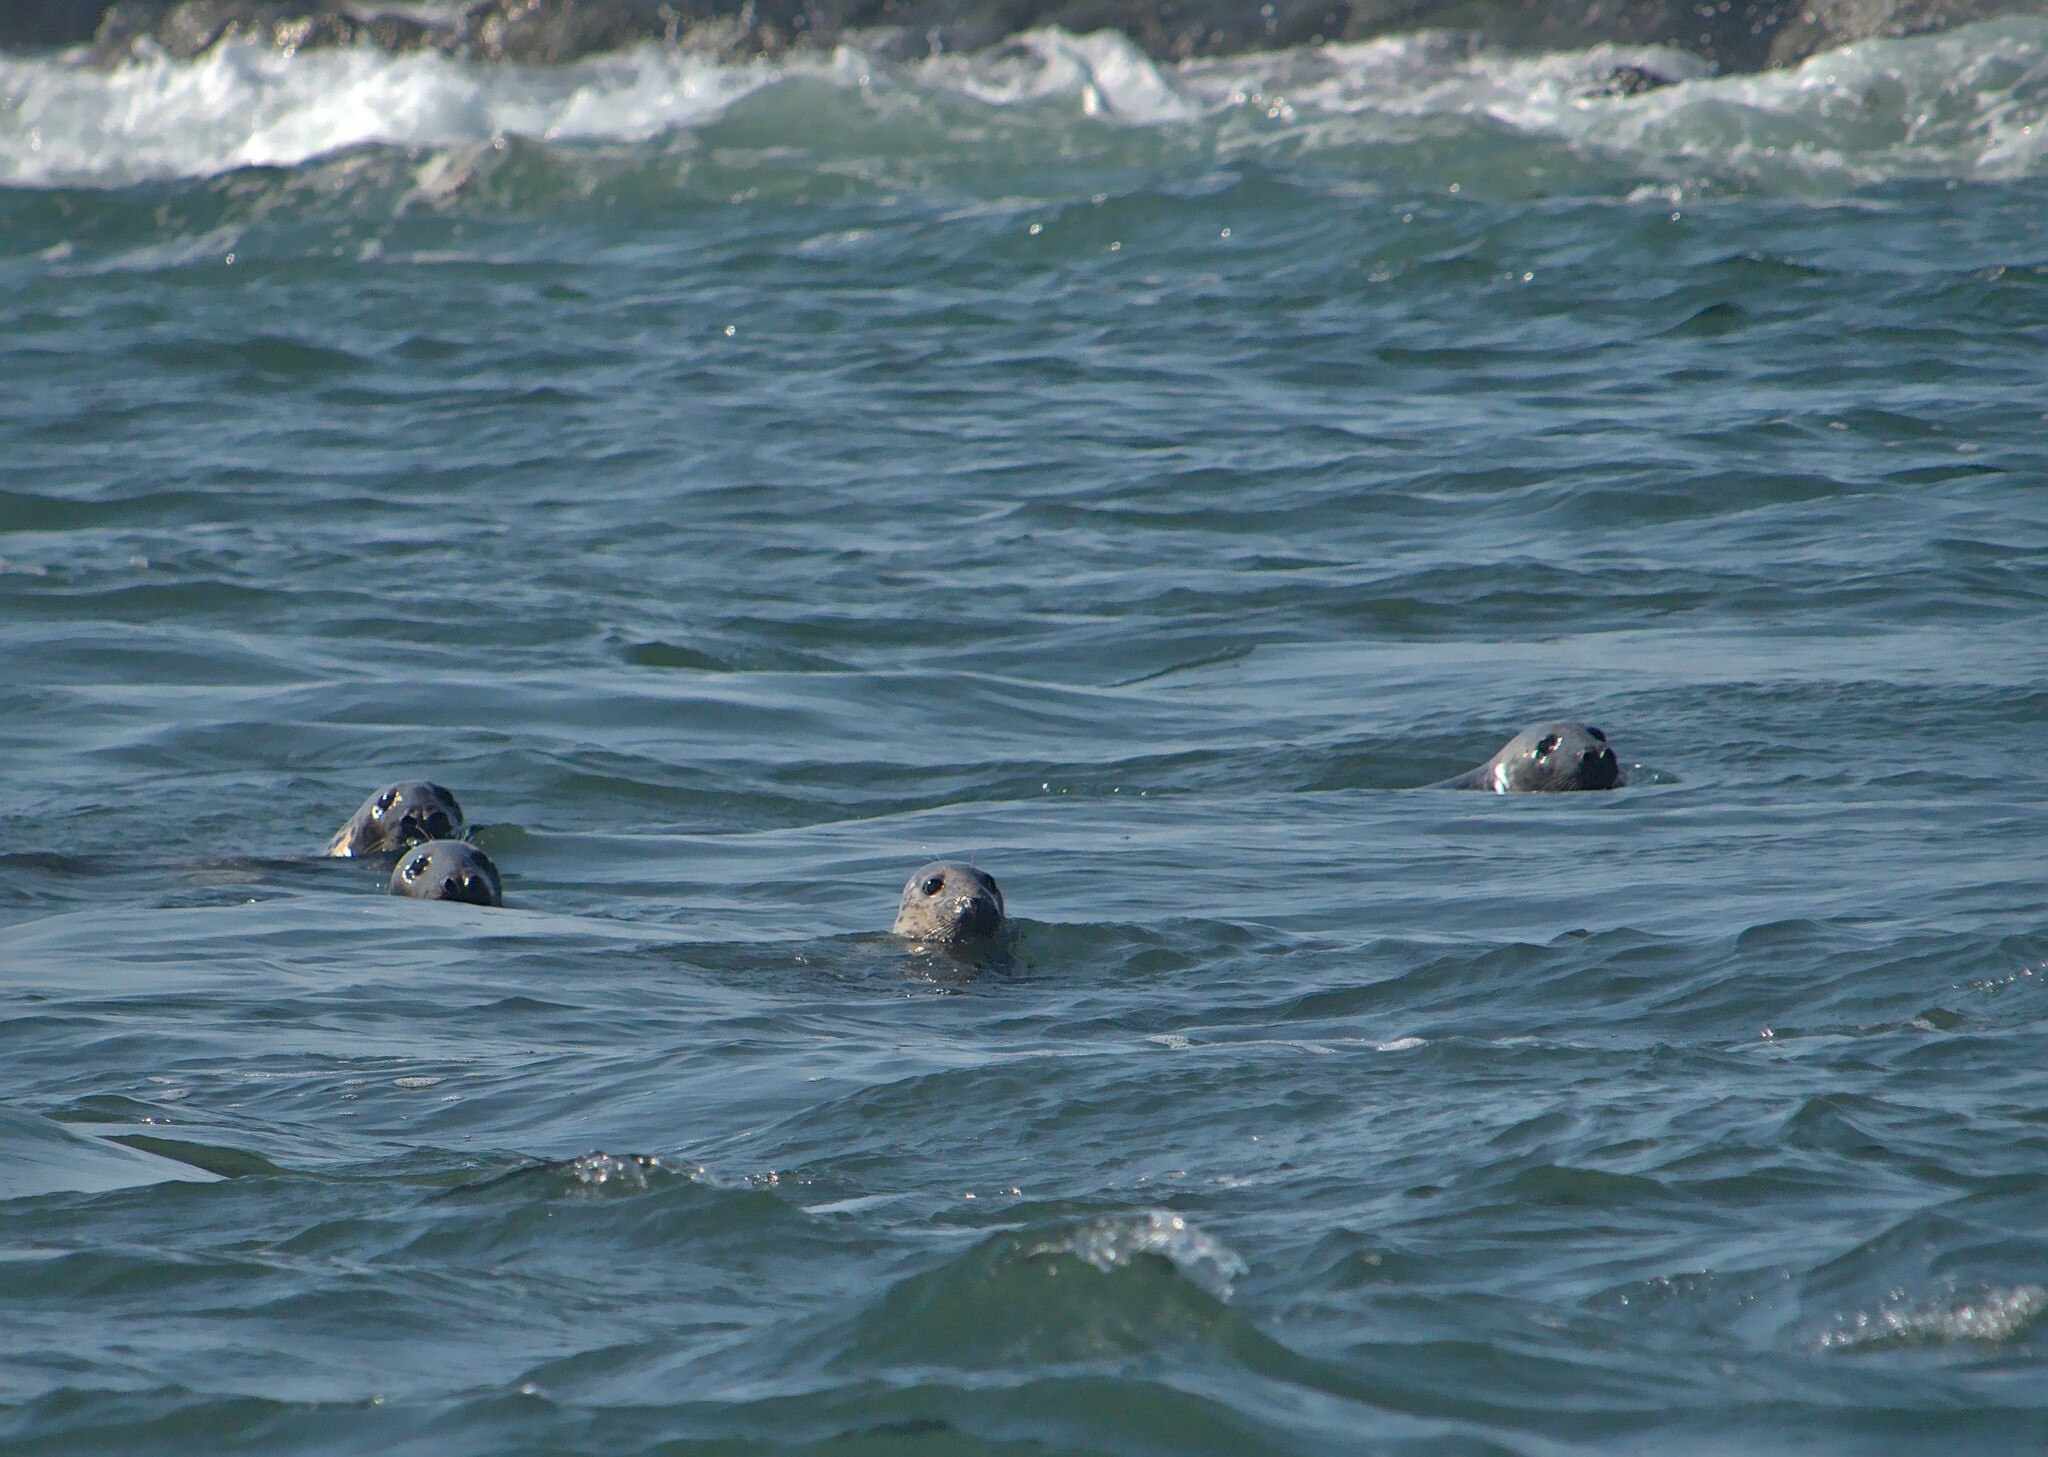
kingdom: Animalia
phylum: Chordata
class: Mammalia
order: Carnivora
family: Phocidae
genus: Halichoerus
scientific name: Halichoerus grypus
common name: Grey seal
